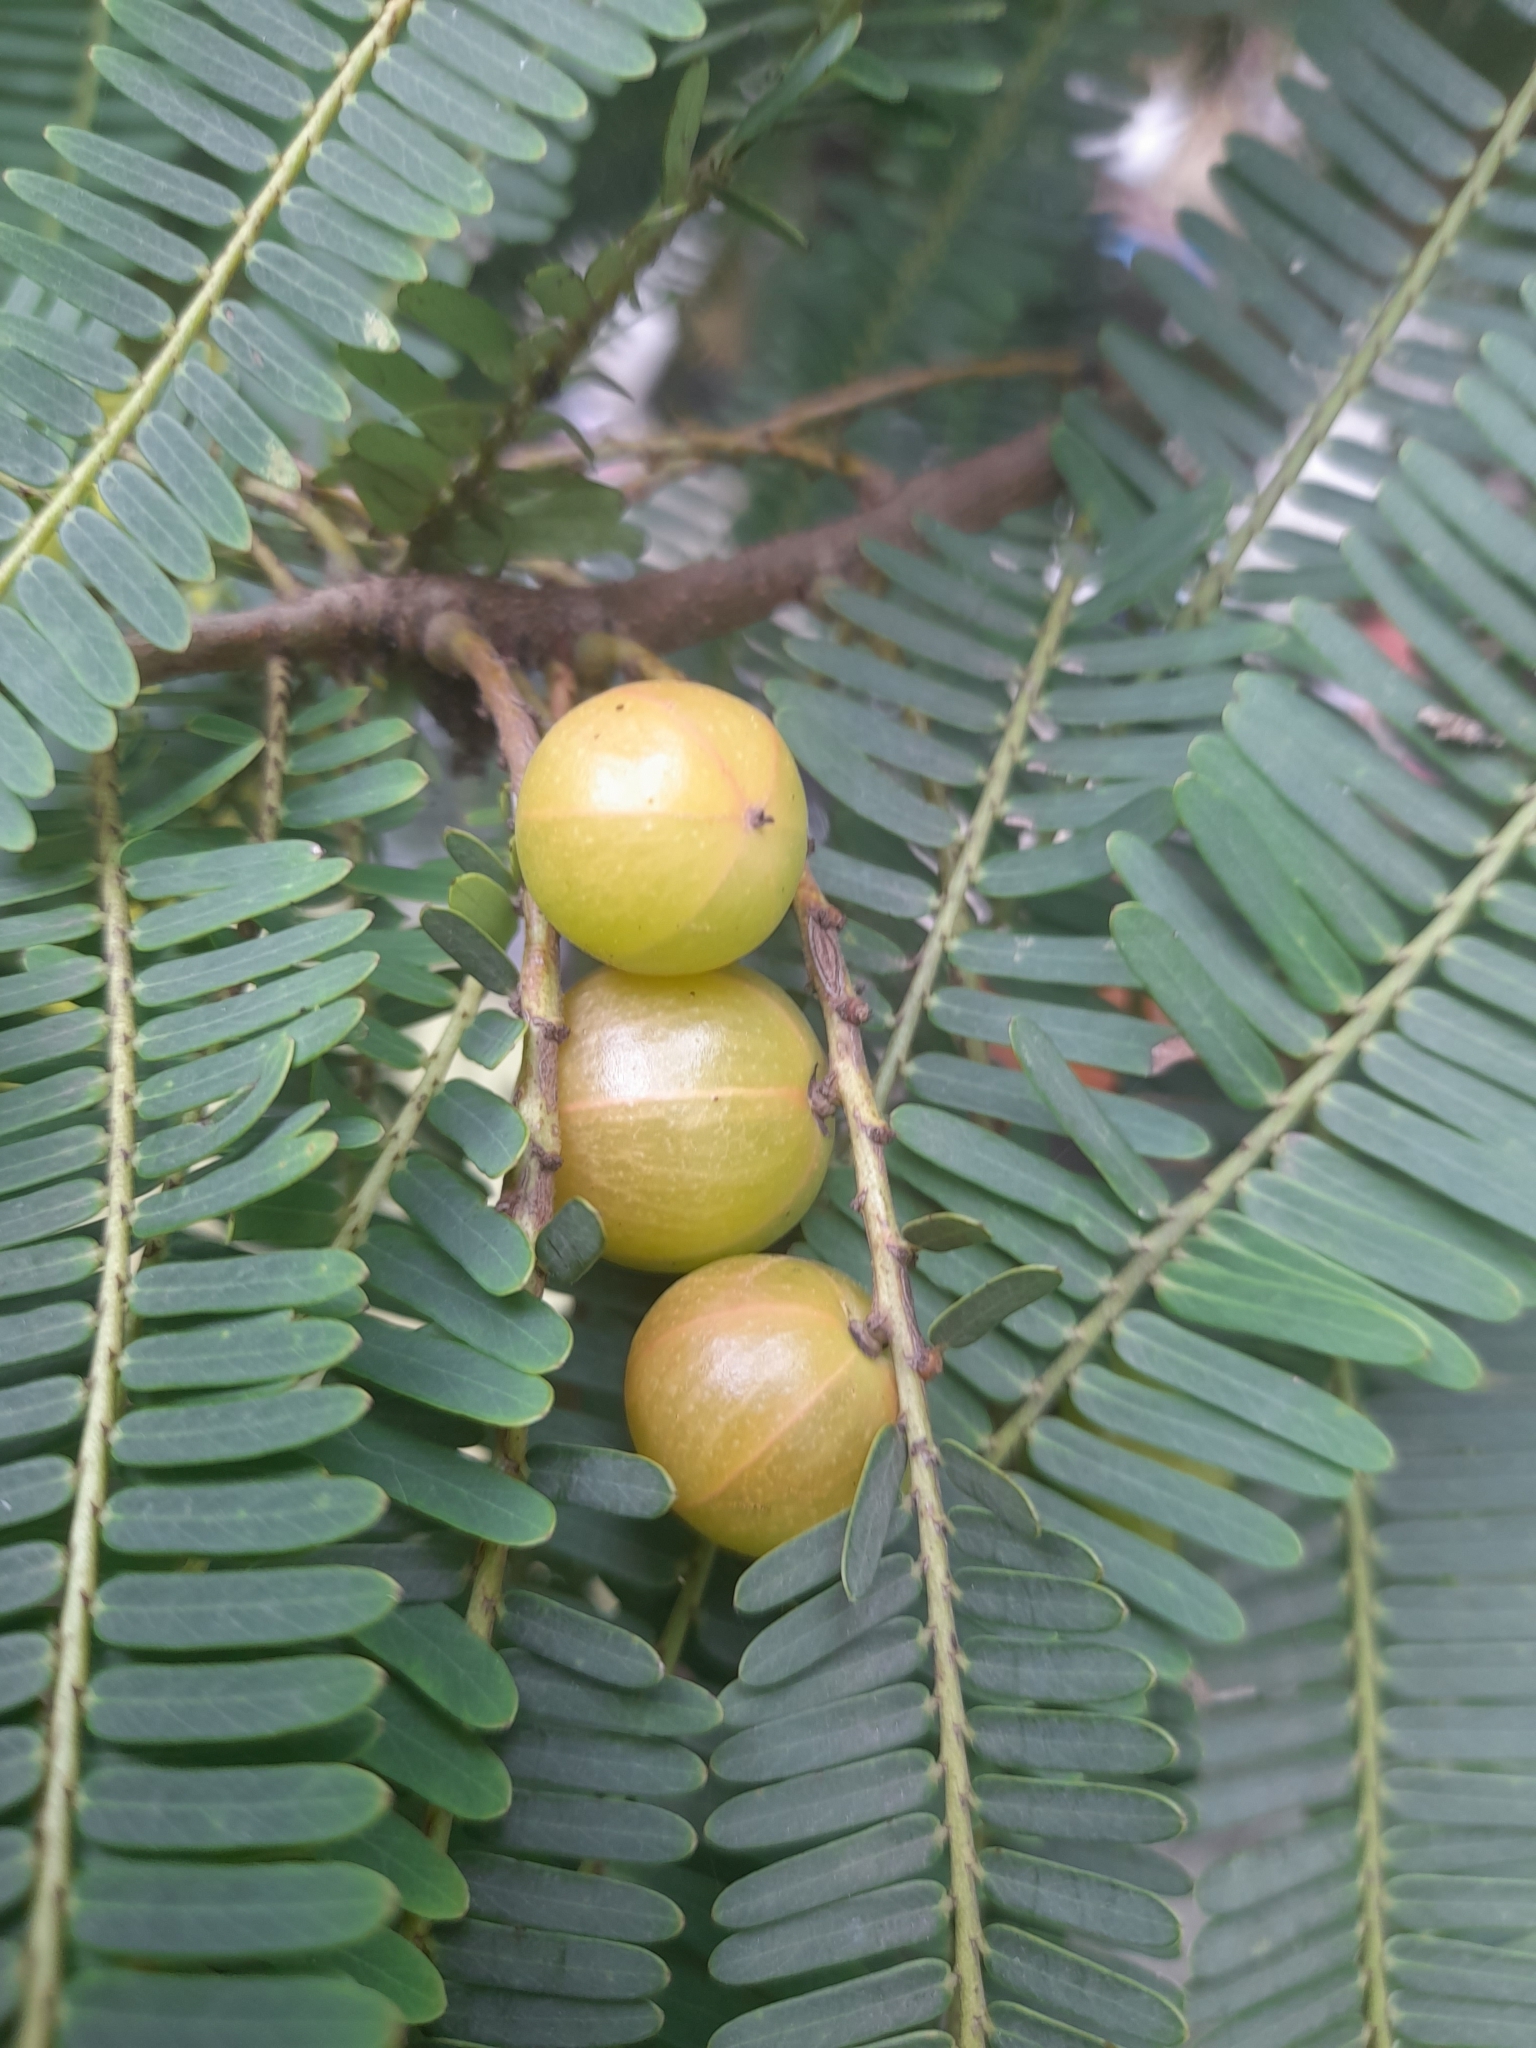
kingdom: Plantae
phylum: Tracheophyta
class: Magnoliopsida
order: Malpighiales
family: Phyllanthaceae
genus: Phyllanthus
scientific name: Phyllanthus emblica
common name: Indian gooseberry
